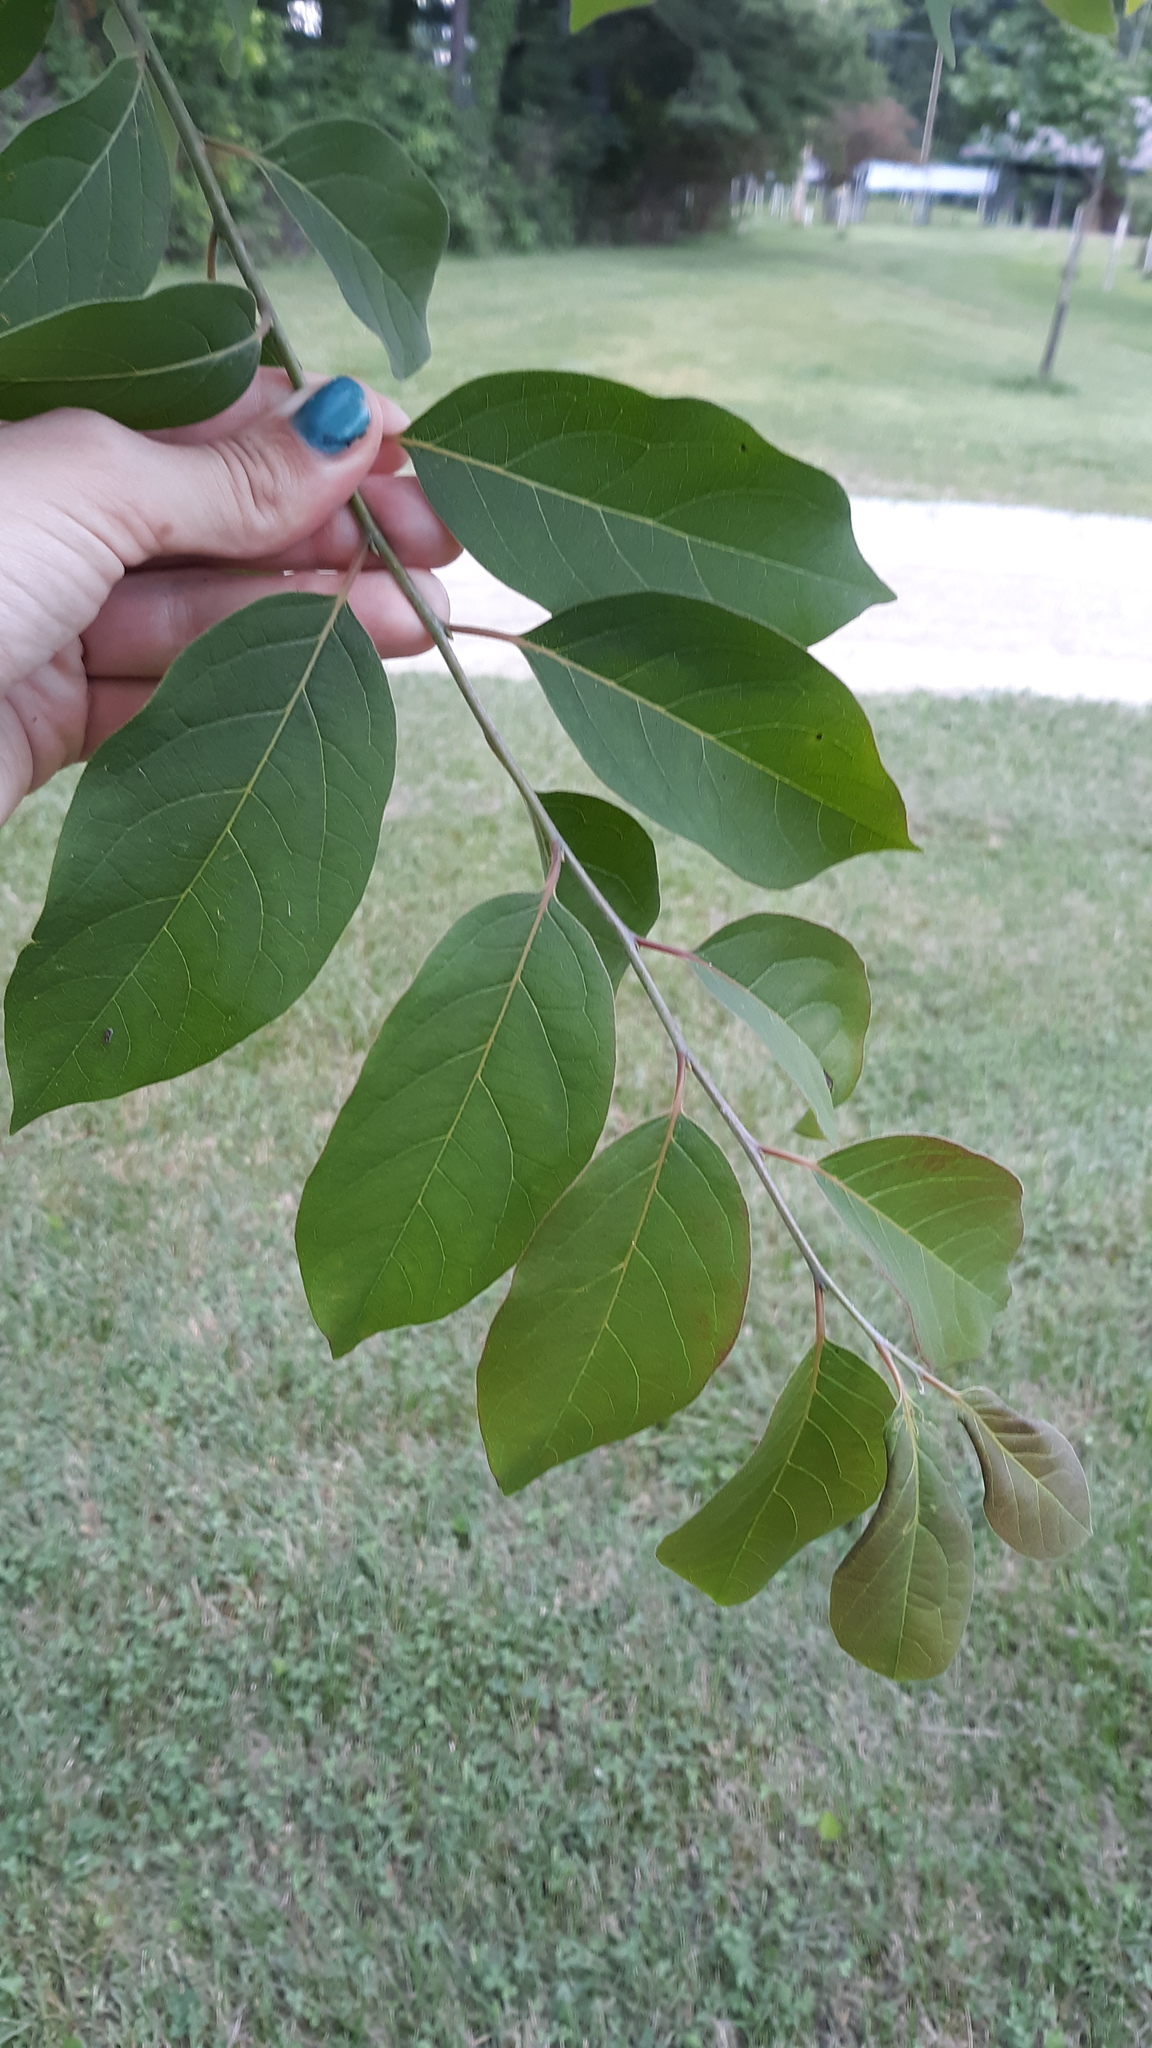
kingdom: Plantae
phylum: Tracheophyta
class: Magnoliopsida
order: Ericales
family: Ebenaceae
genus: Diospyros
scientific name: Diospyros virginiana
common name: Persimmon
